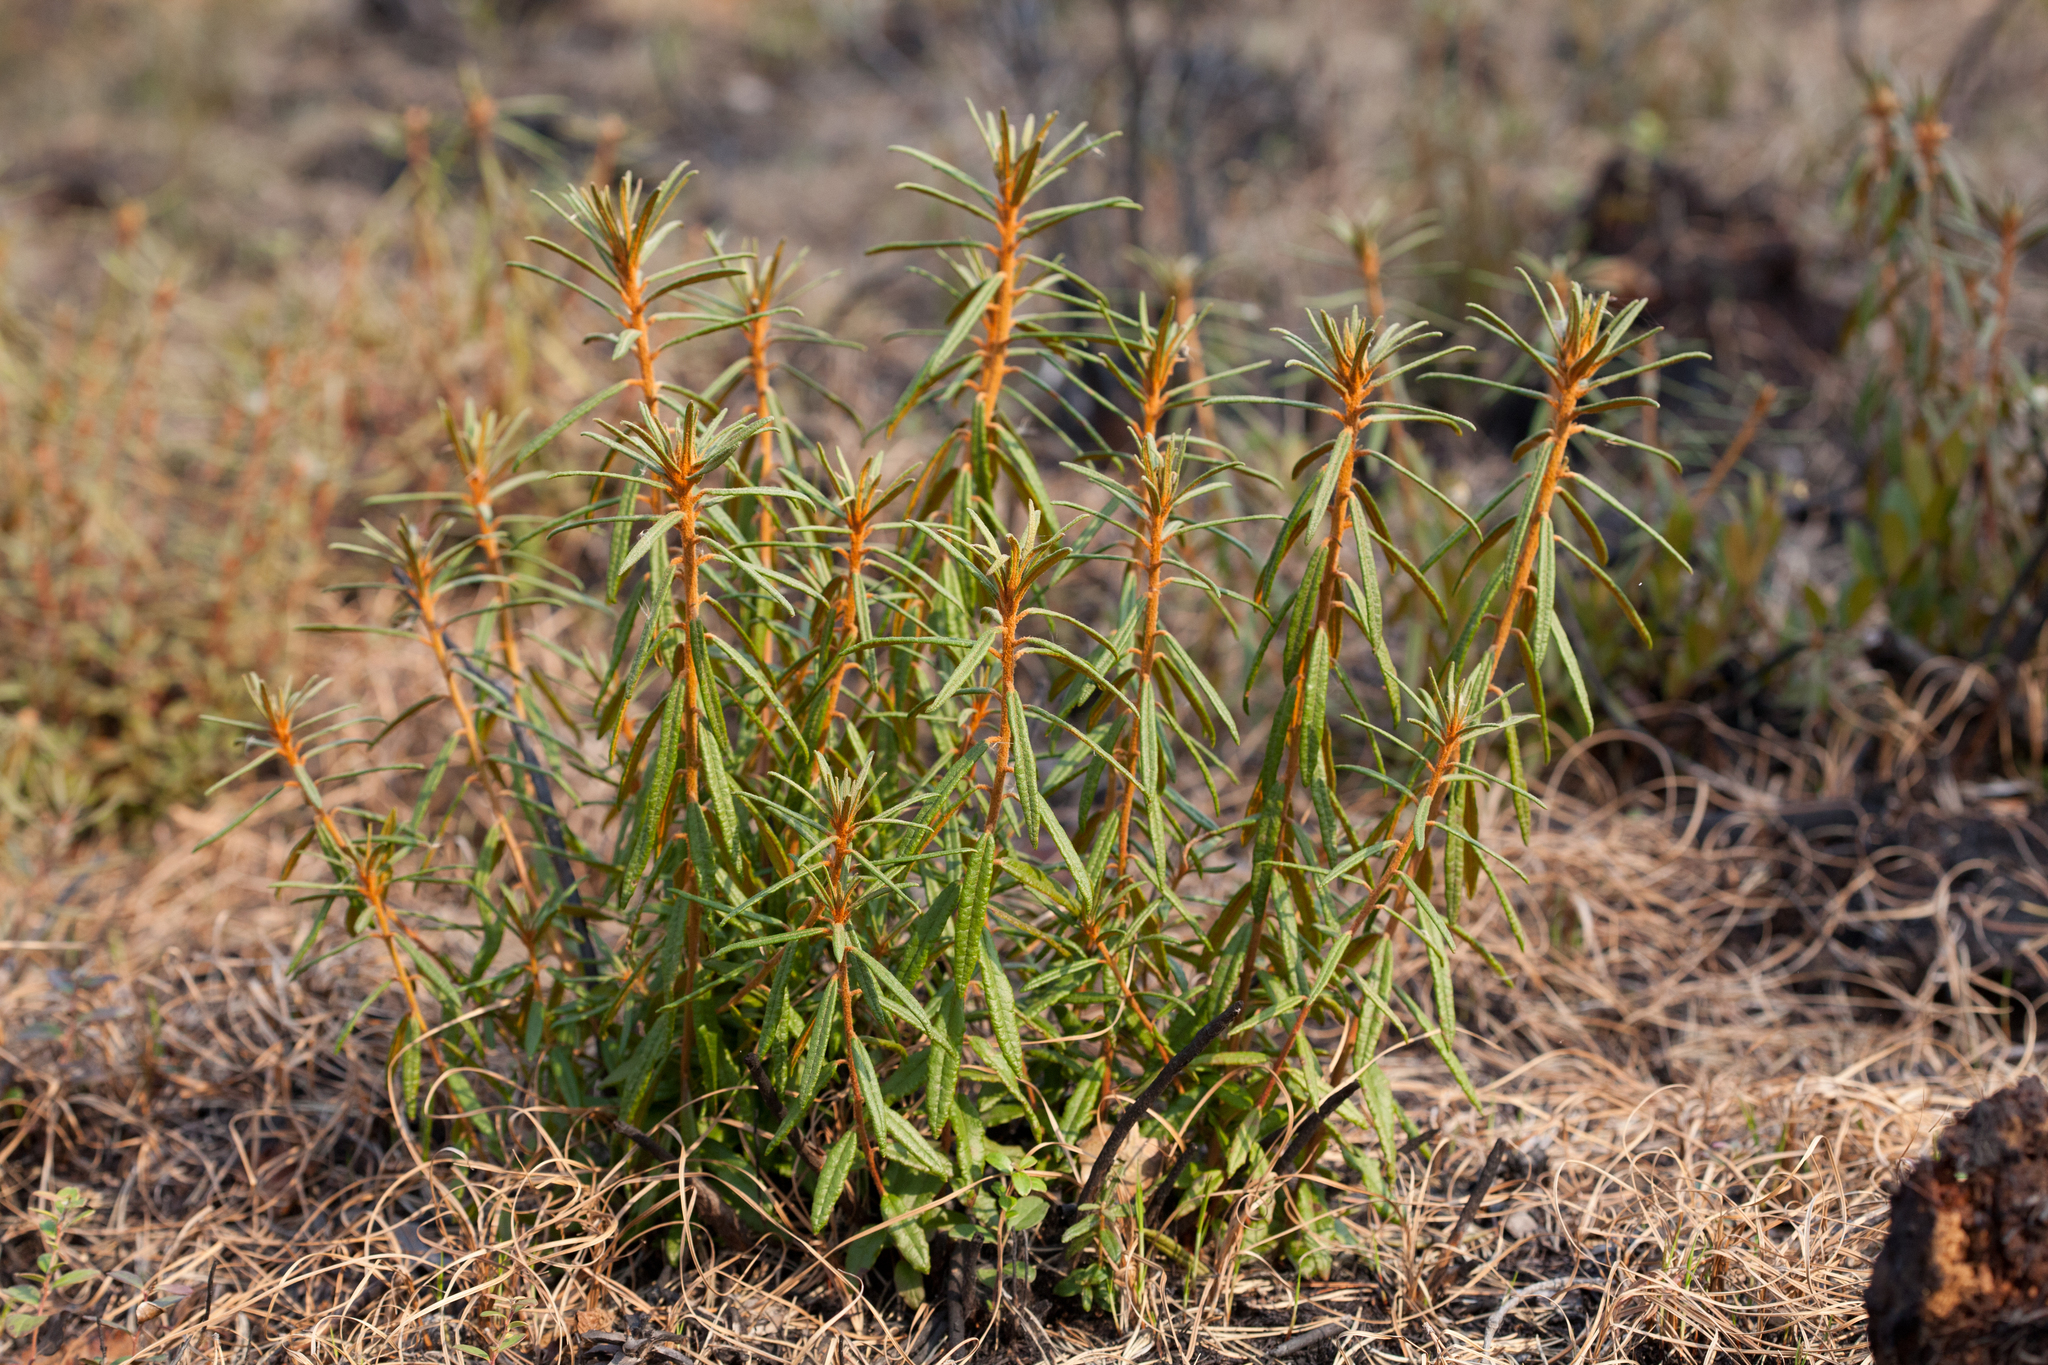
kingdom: Plantae
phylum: Tracheophyta
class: Magnoliopsida
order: Ericales
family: Ericaceae
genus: Rhododendron
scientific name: Rhododendron tomentosum
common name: Marsh labrador tea
